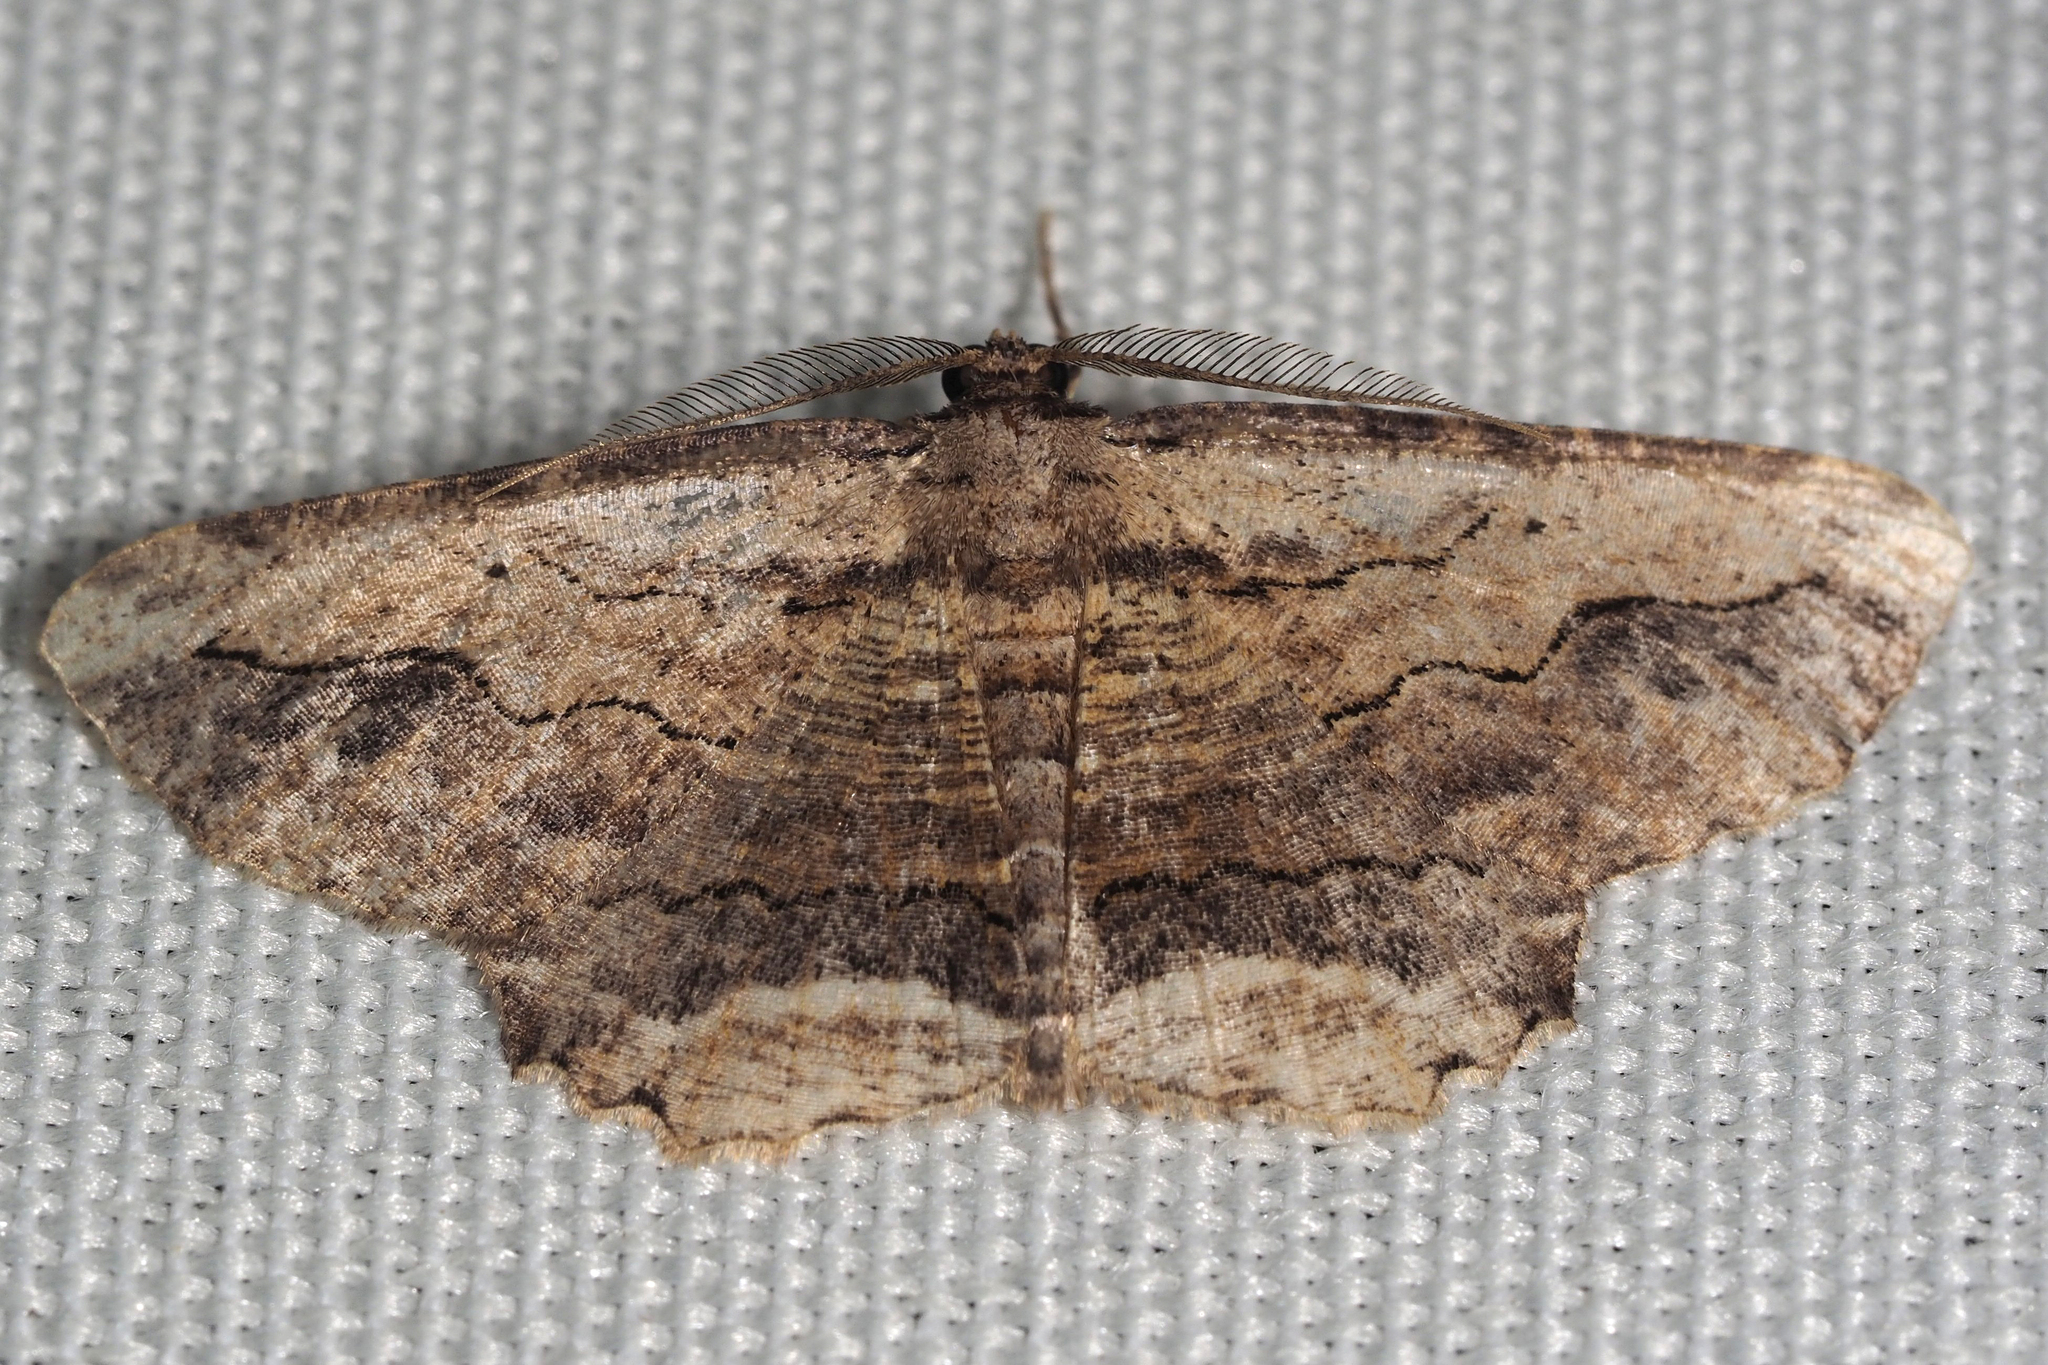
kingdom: Animalia
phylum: Arthropoda
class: Insecta
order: Lepidoptera
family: Geometridae
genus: Menophra
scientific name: Menophra abruptaria
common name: Waved umber
